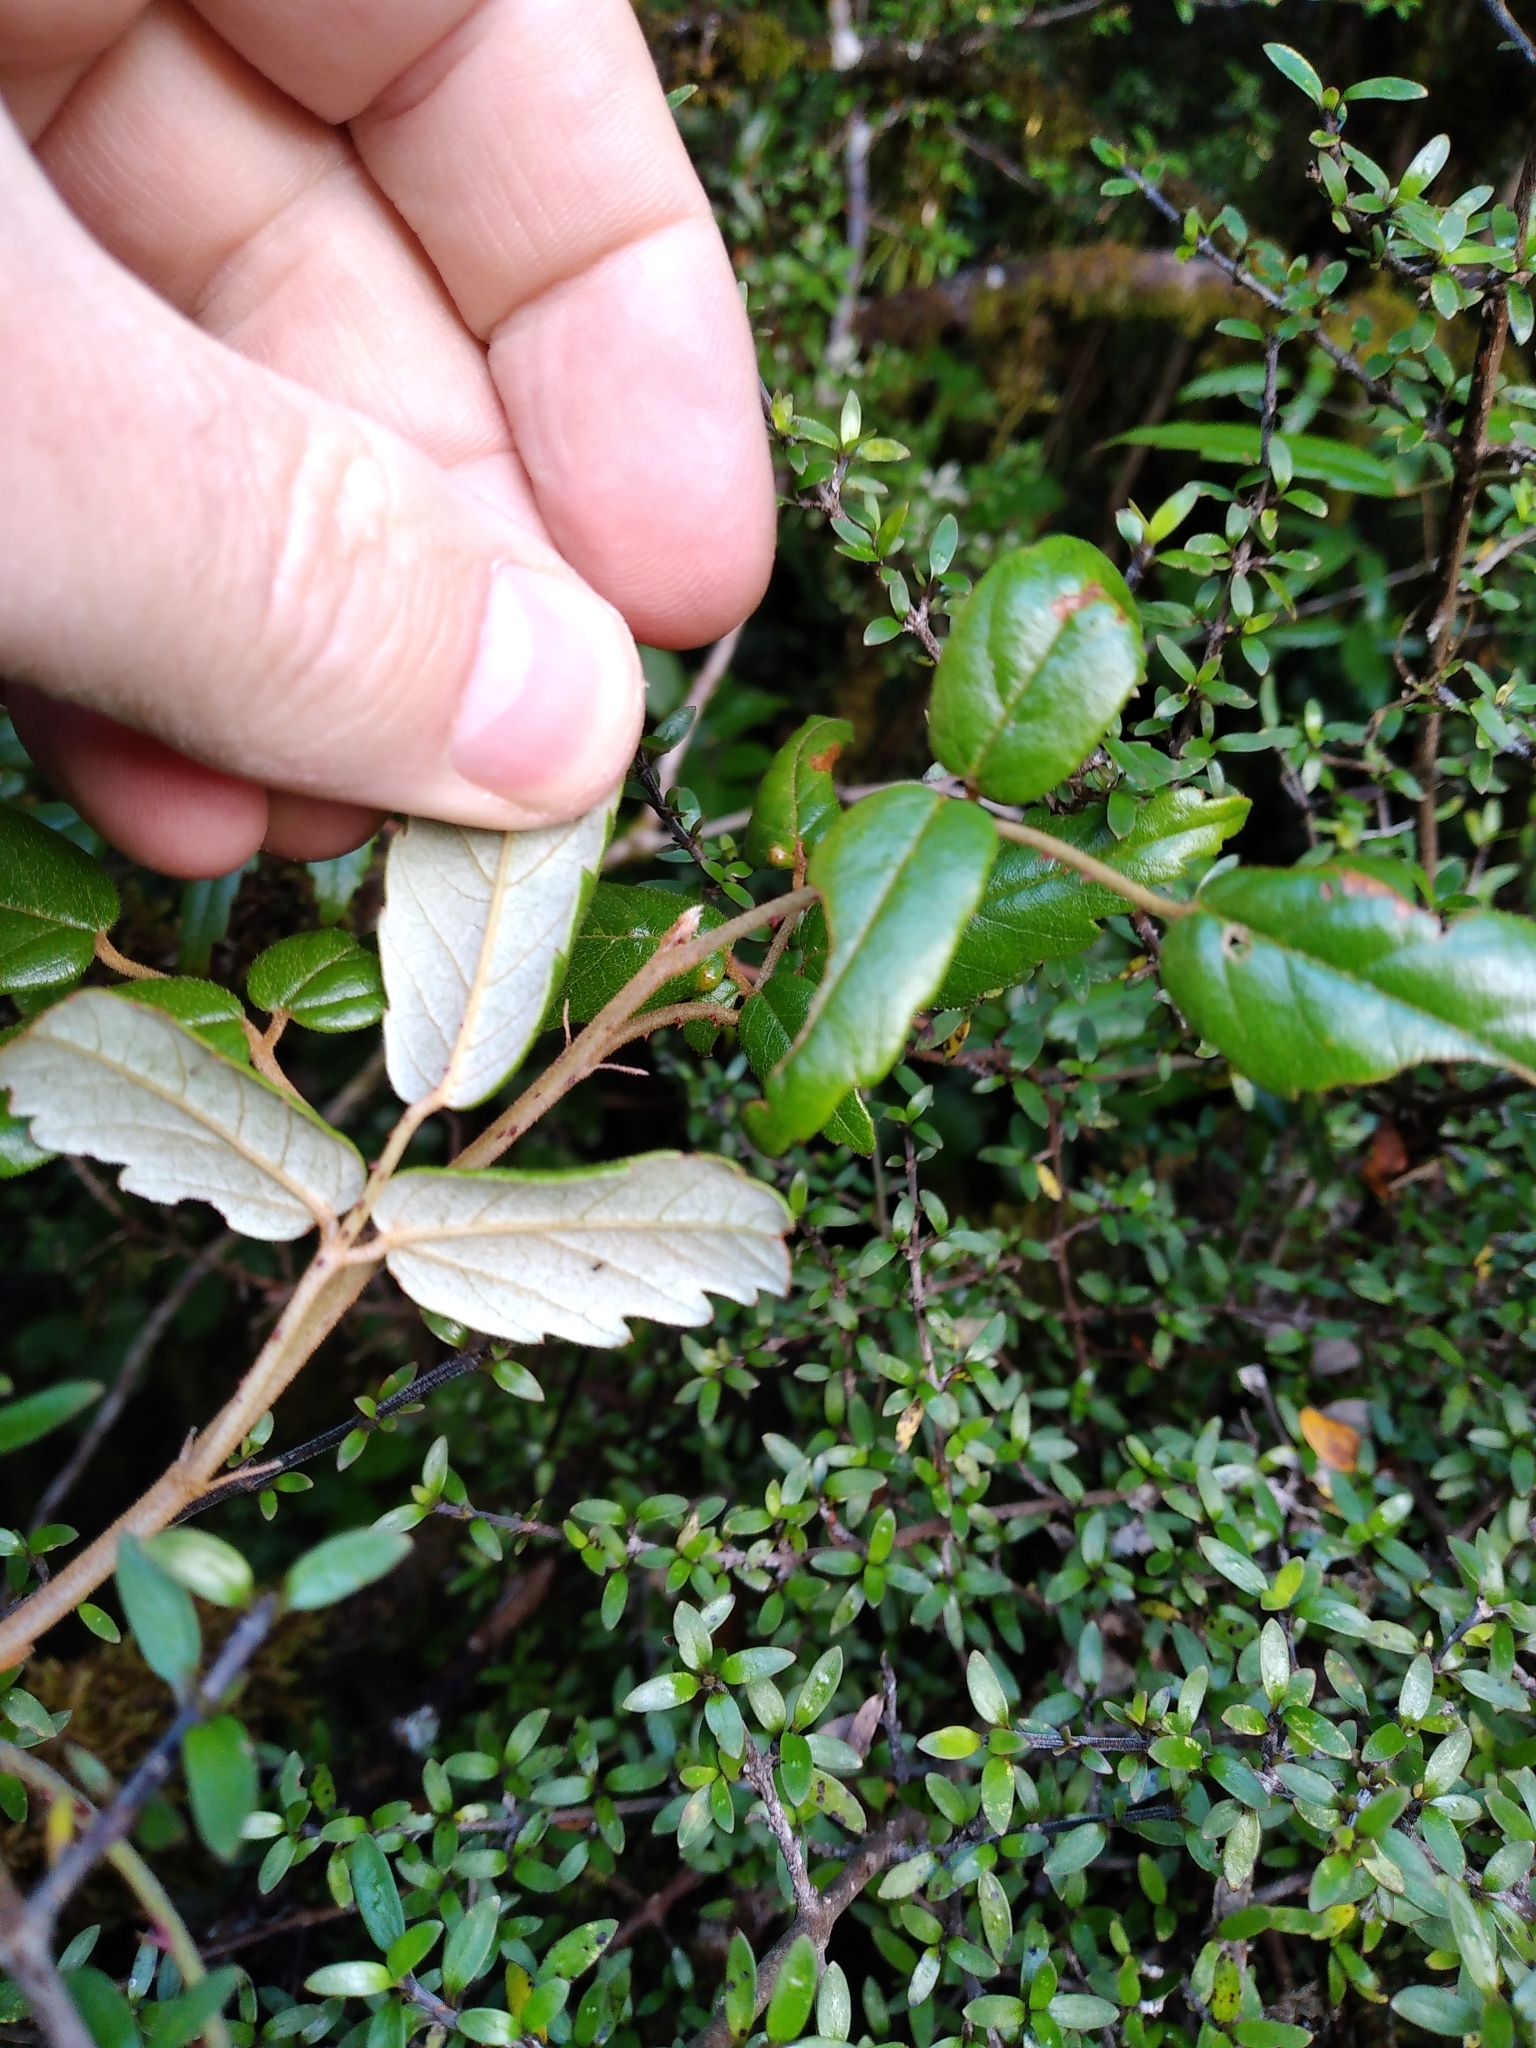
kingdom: Plantae
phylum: Tracheophyta
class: Magnoliopsida
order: Rosales
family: Rosaceae
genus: Rubus
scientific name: Rubus schmidelioides
